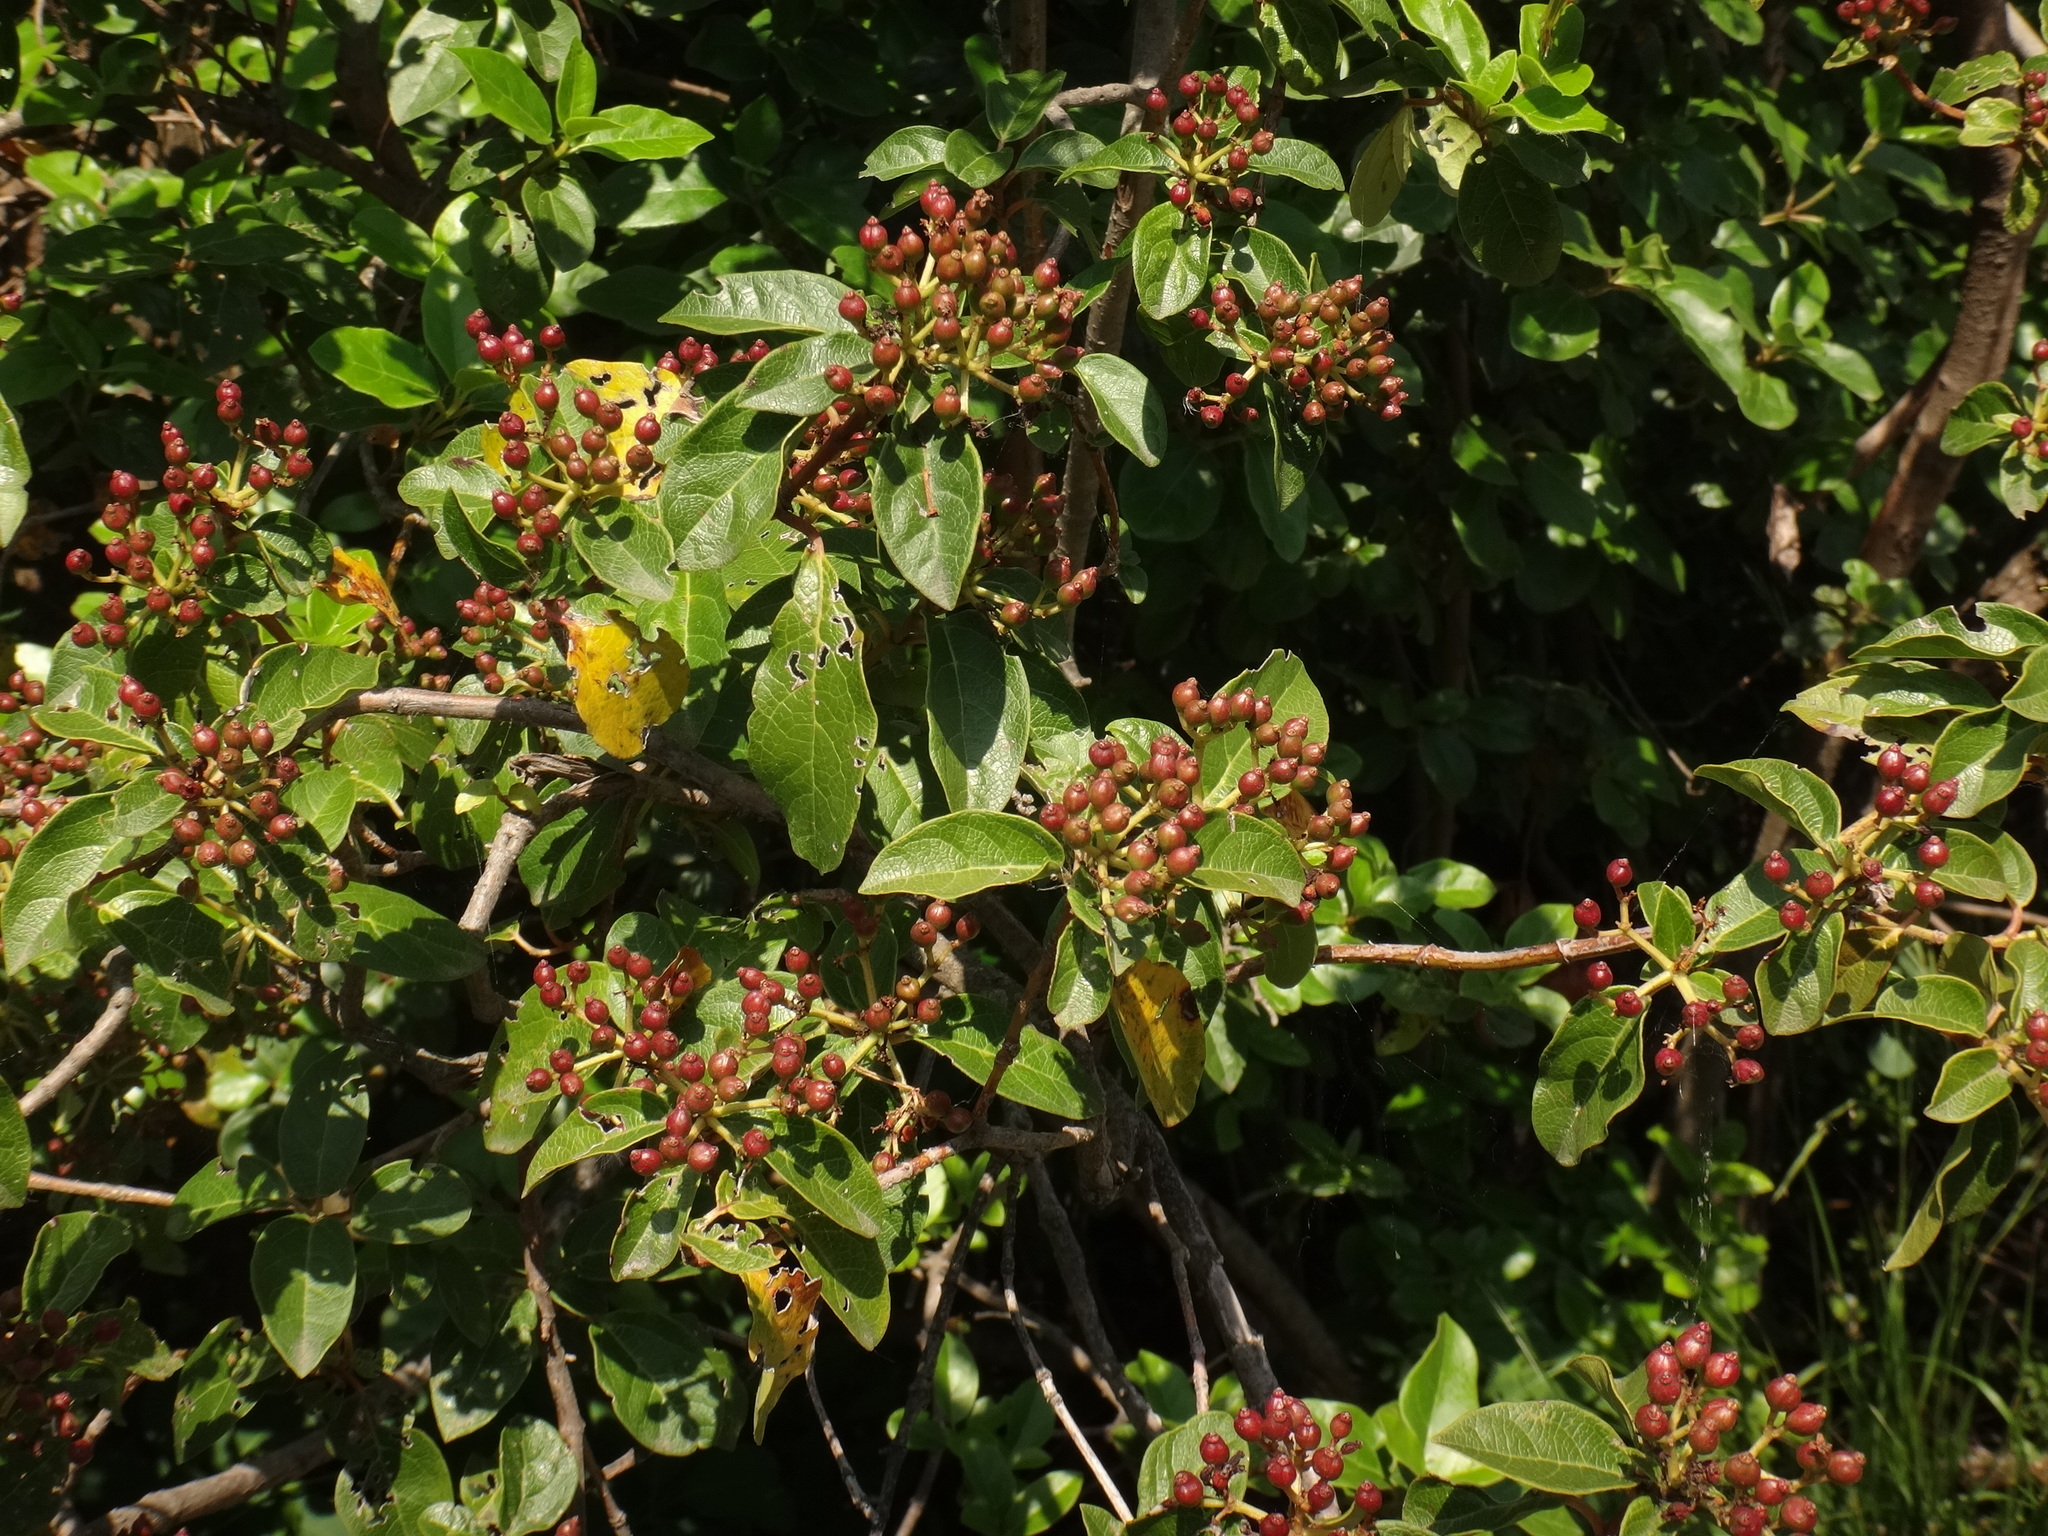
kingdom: Plantae
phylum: Tracheophyta
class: Magnoliopsida
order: Dipsacales
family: Viburnaceae
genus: Viburnum
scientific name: Viburnum tinus
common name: Laurustinus
